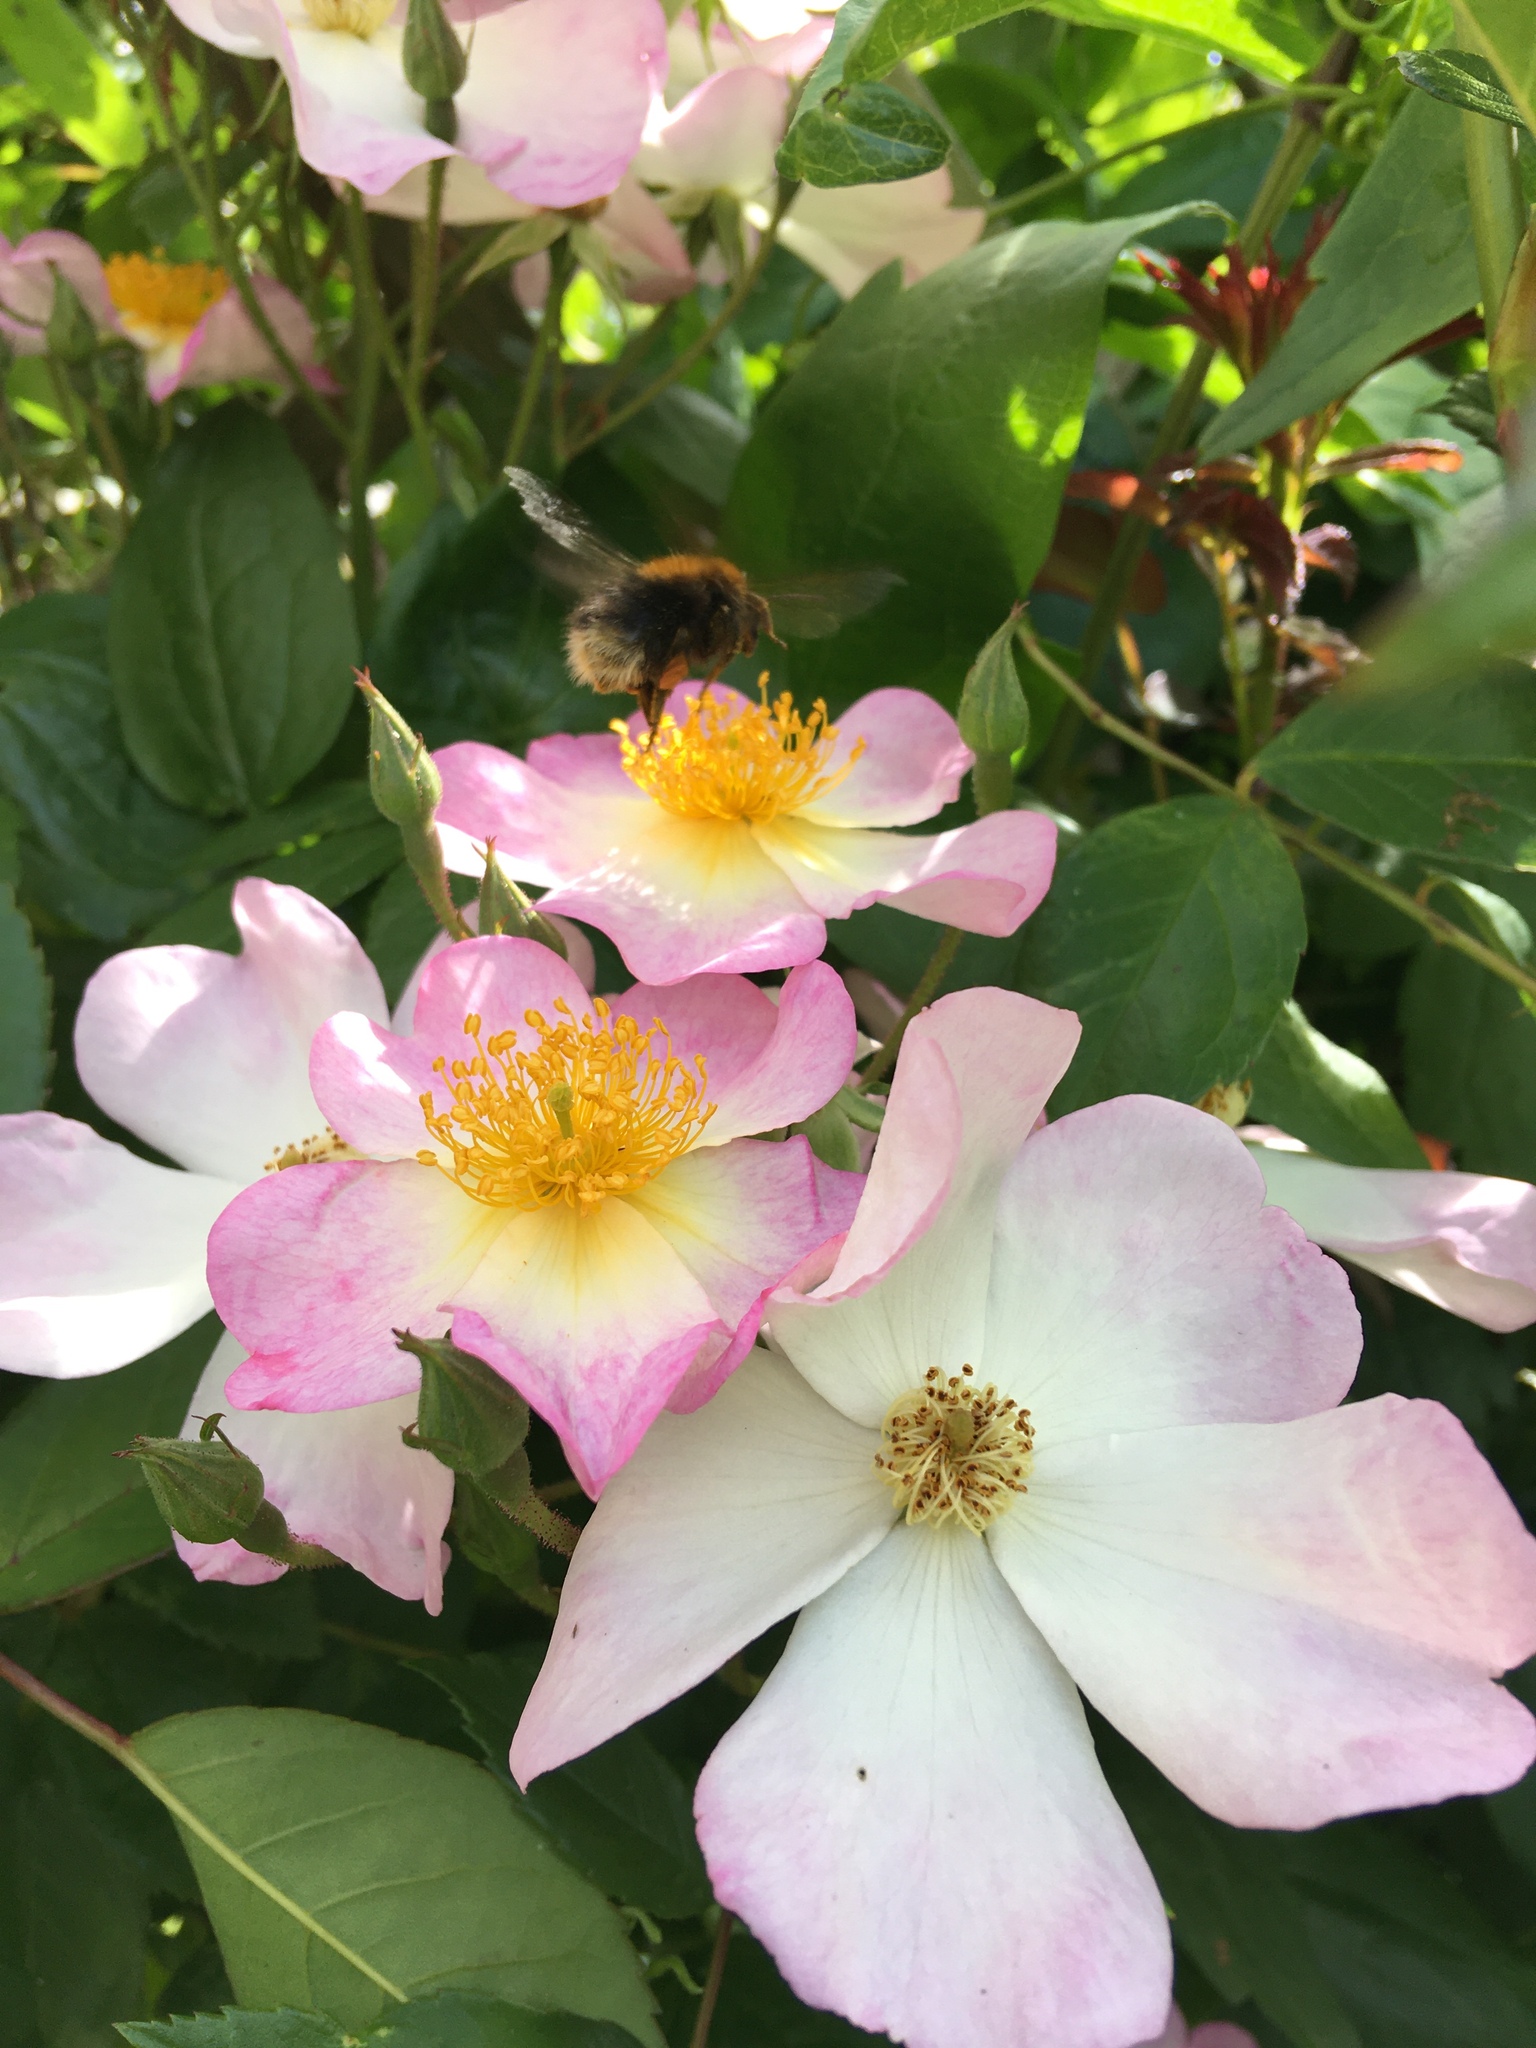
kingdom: Animalia
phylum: Arthropoda
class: Insecta
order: Hymenoptera
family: Apidae
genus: Bombus
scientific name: Bombus hypnorum
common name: New garden bumblebee
